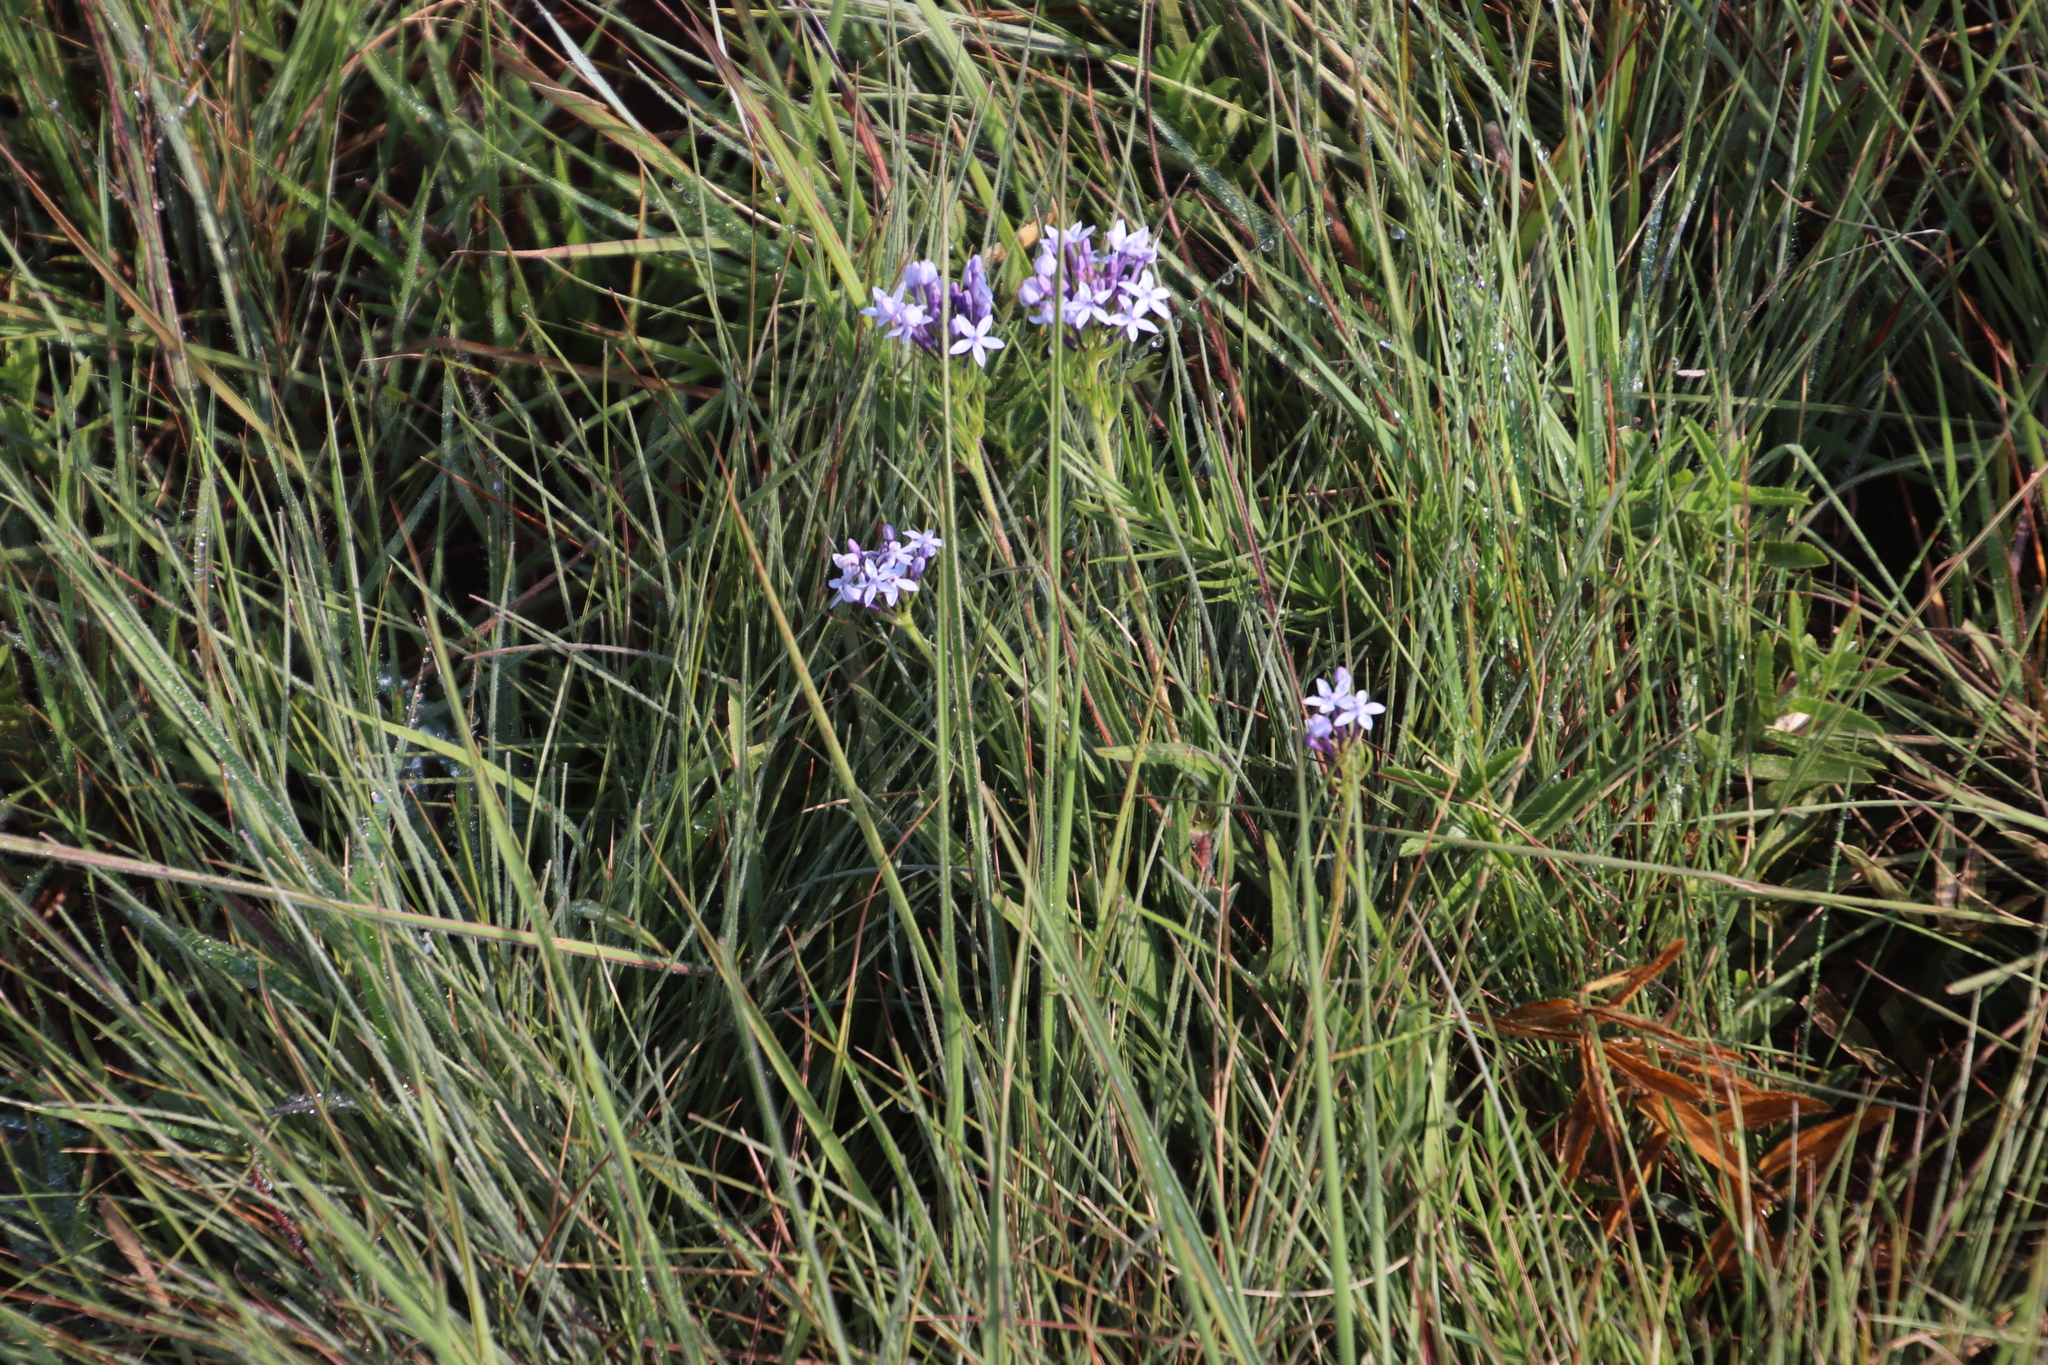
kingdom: Plantae
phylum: Tracheophyta
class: Magnoliopsida
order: Gentianales
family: Rubiaceae
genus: Pentanisia
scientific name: Pentanisia prunelloides
